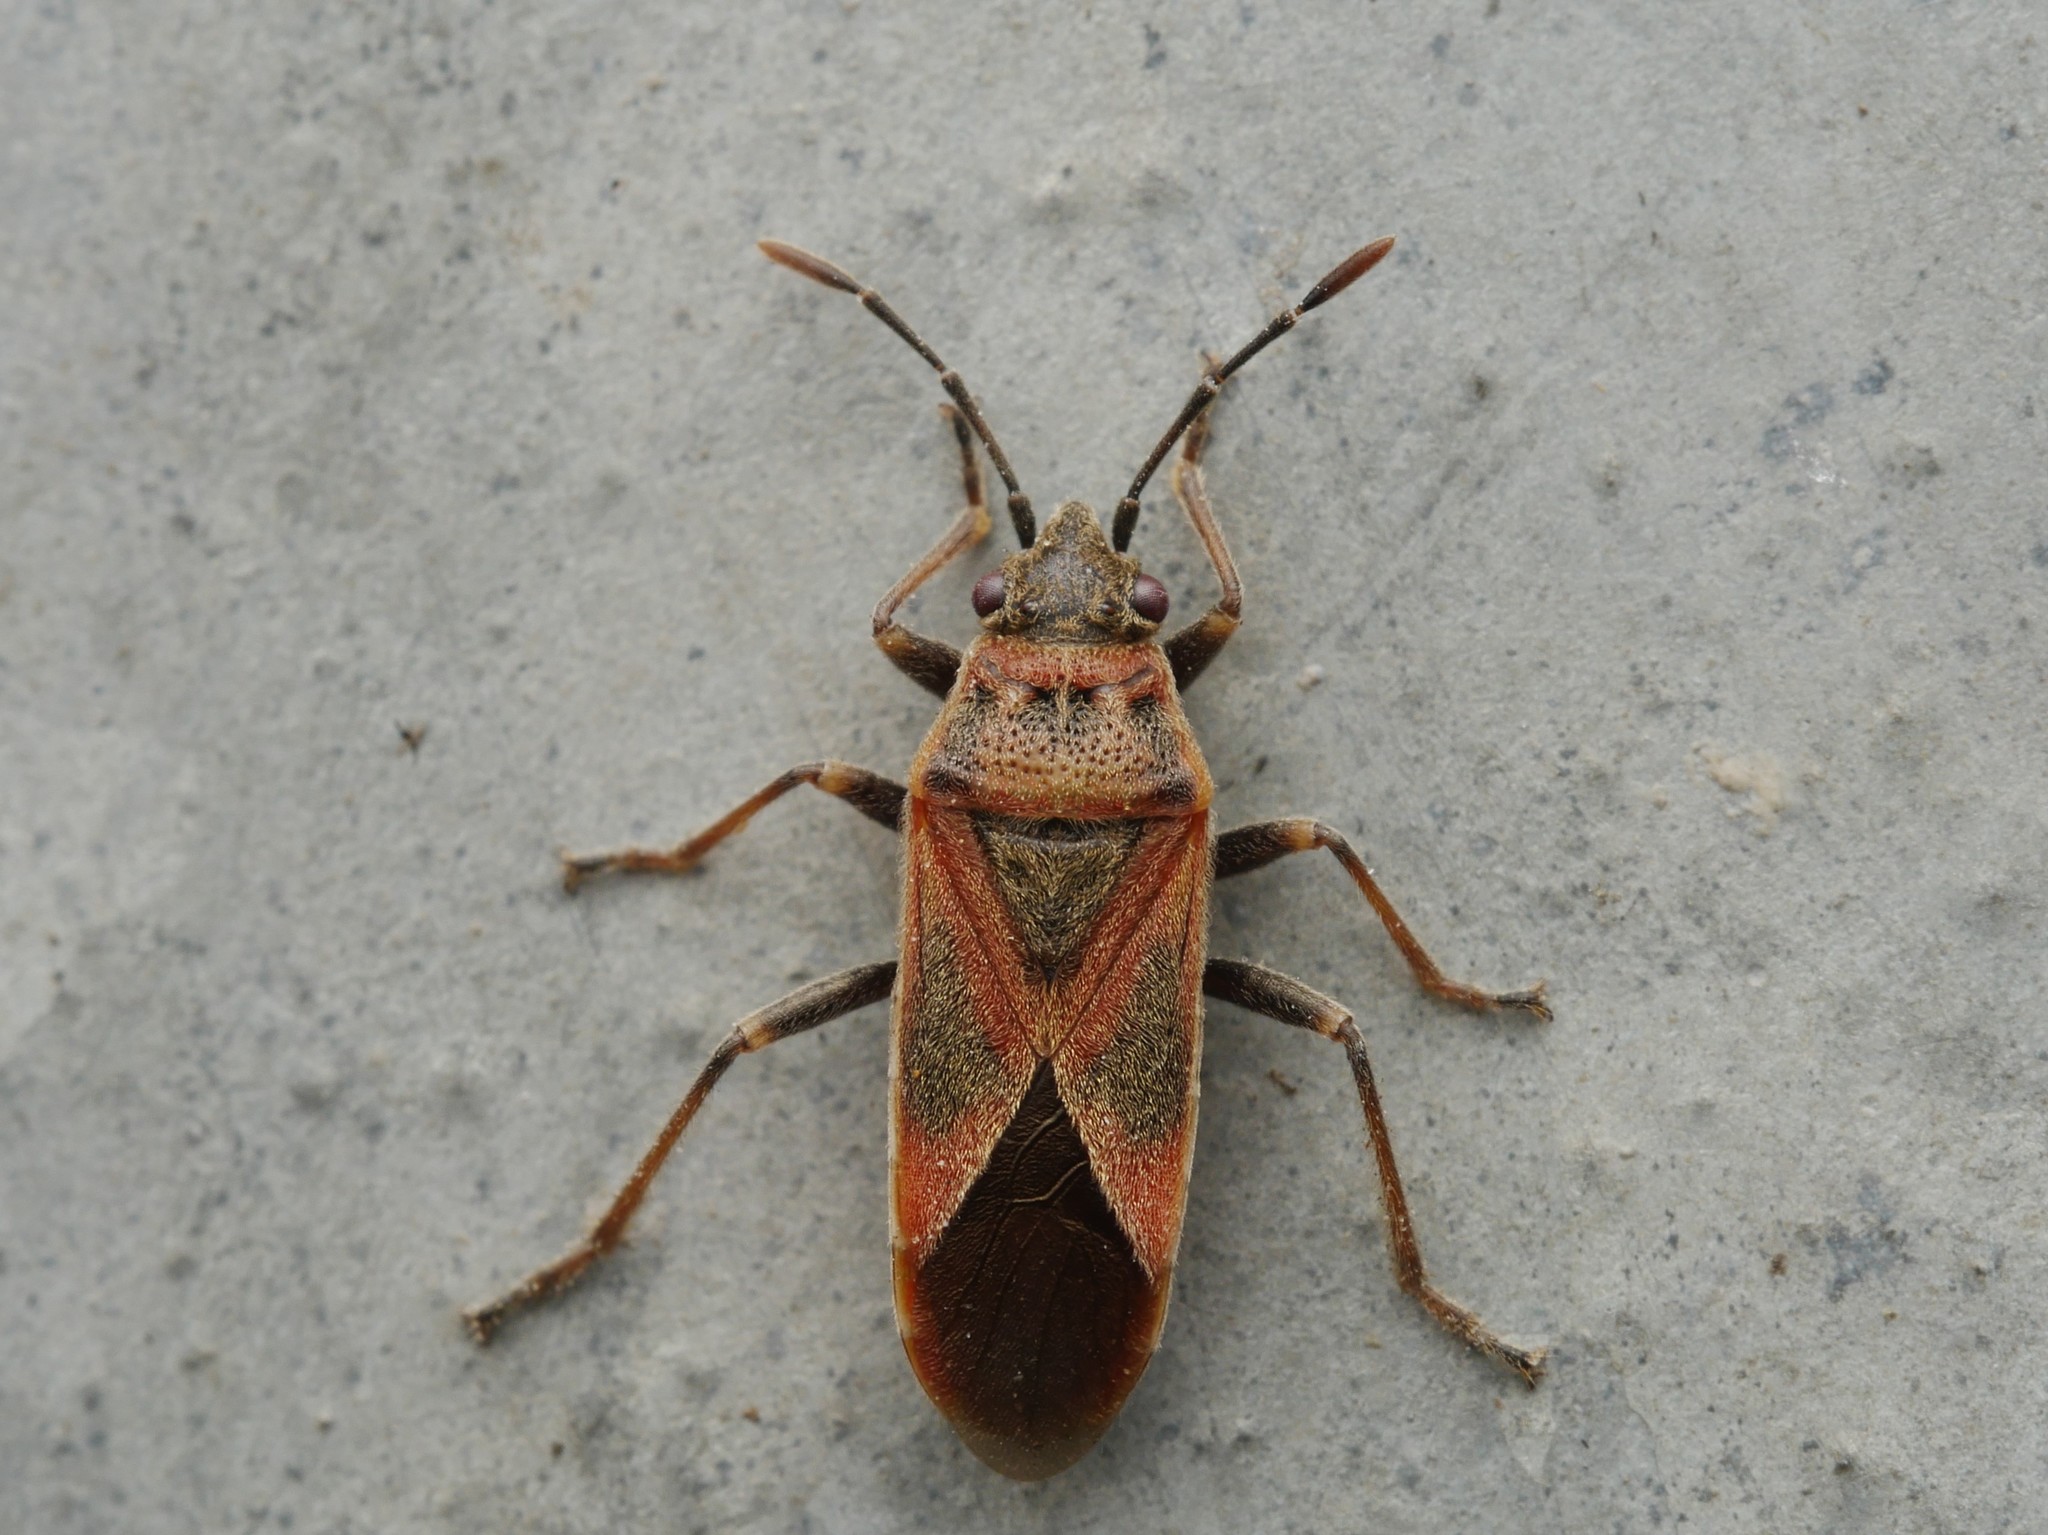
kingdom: Animalia
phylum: Arthropoda
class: Insecta
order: Hemiptera
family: Lygaeidae
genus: Arocatus
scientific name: Arocatus roeselii
